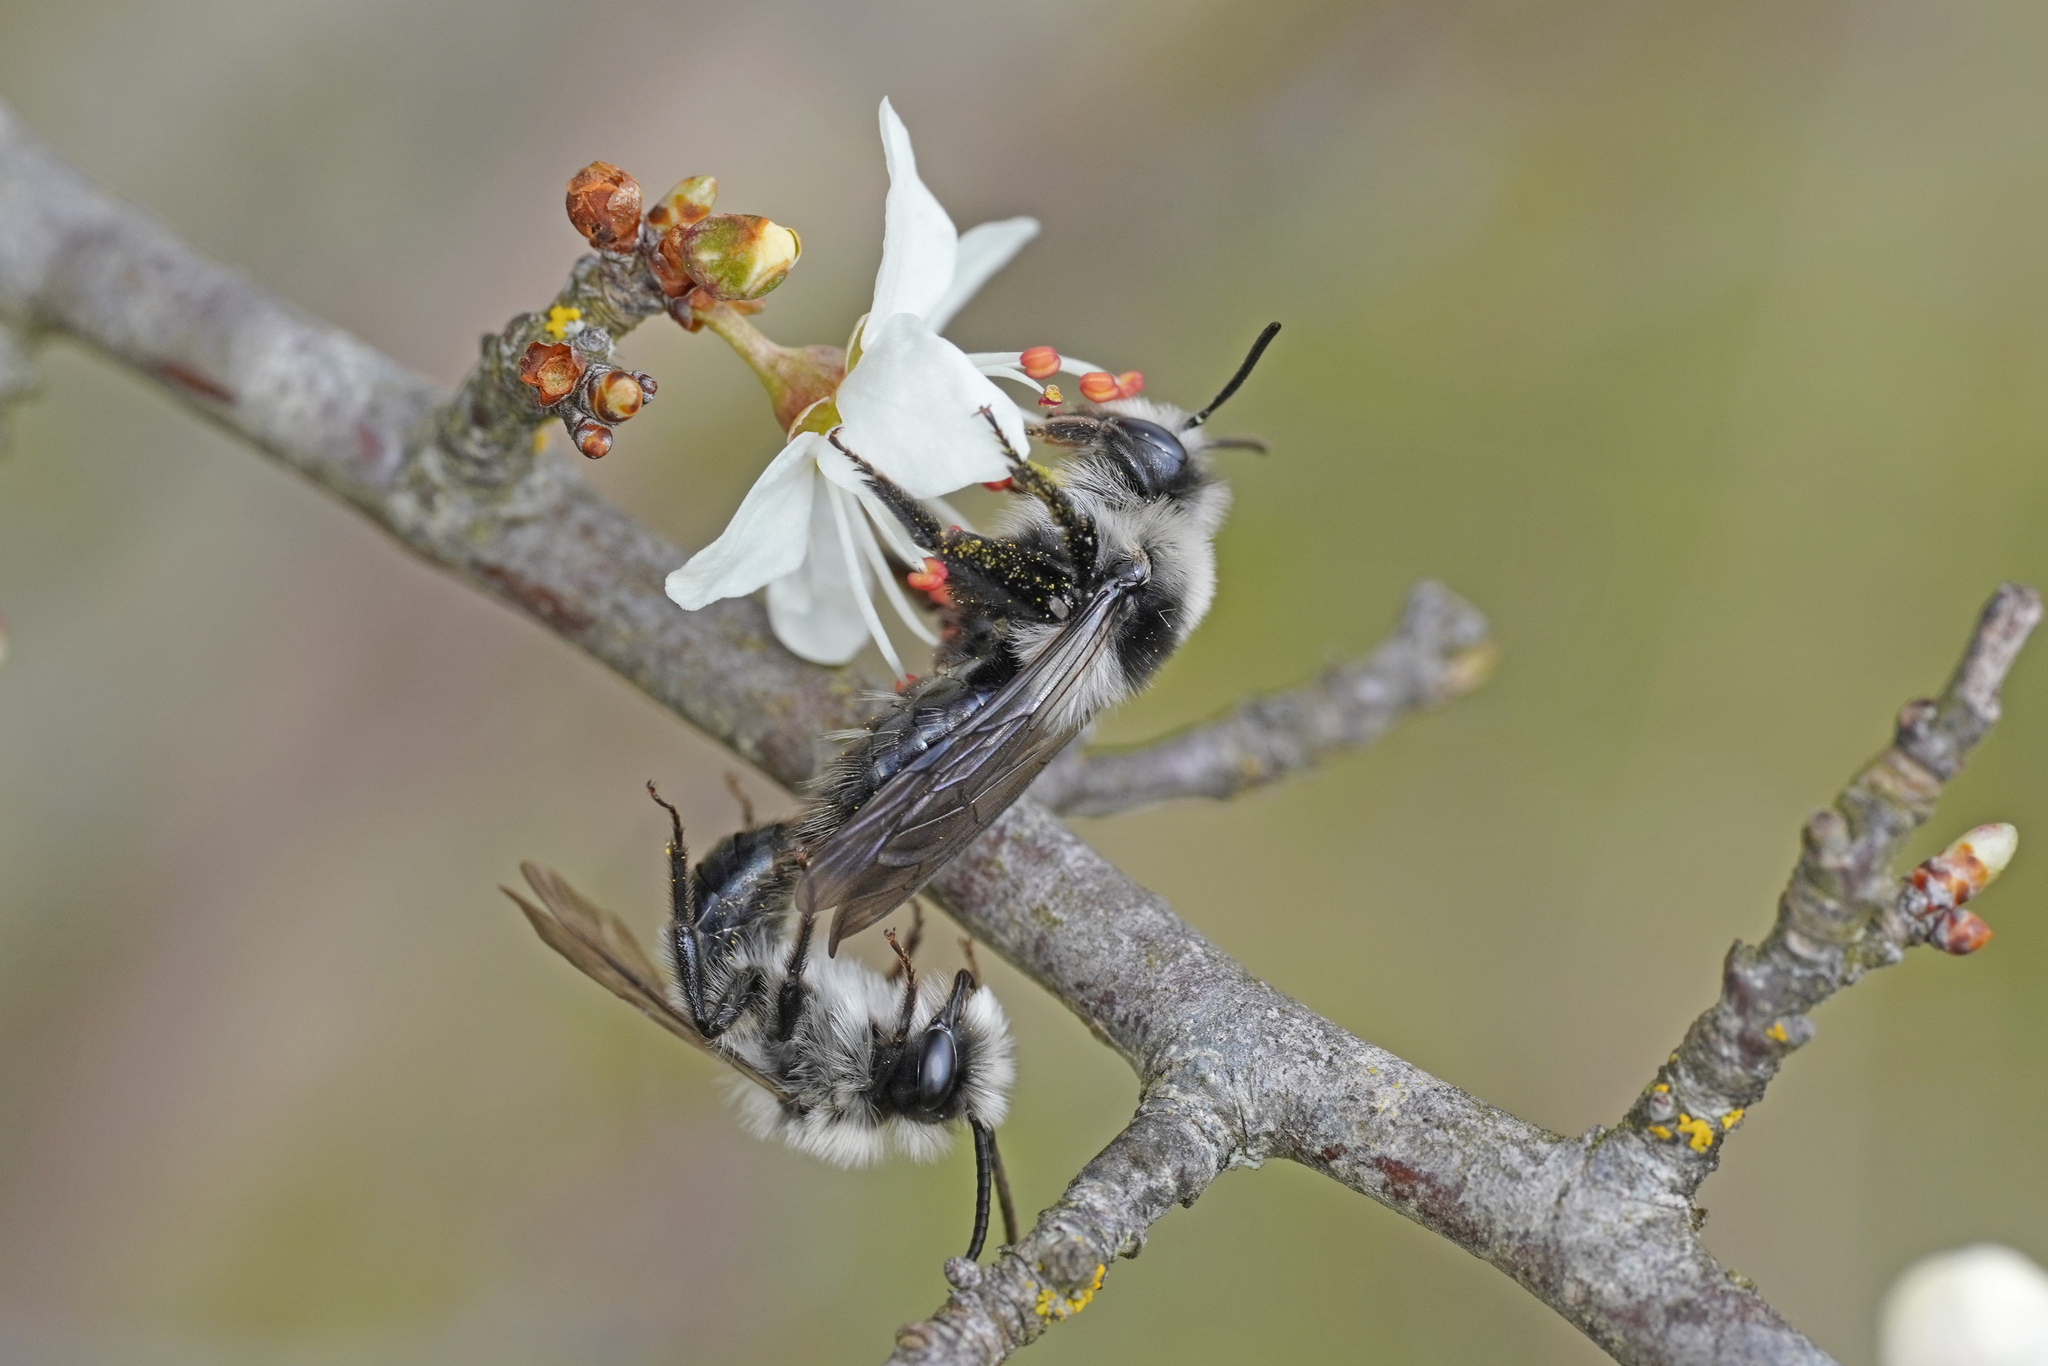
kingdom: Animalia
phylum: Arthropoda
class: Insecta
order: Hymenoptera
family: Andrenidae
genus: Andrena
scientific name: Andrena cineraria
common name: Ashy mining bee
